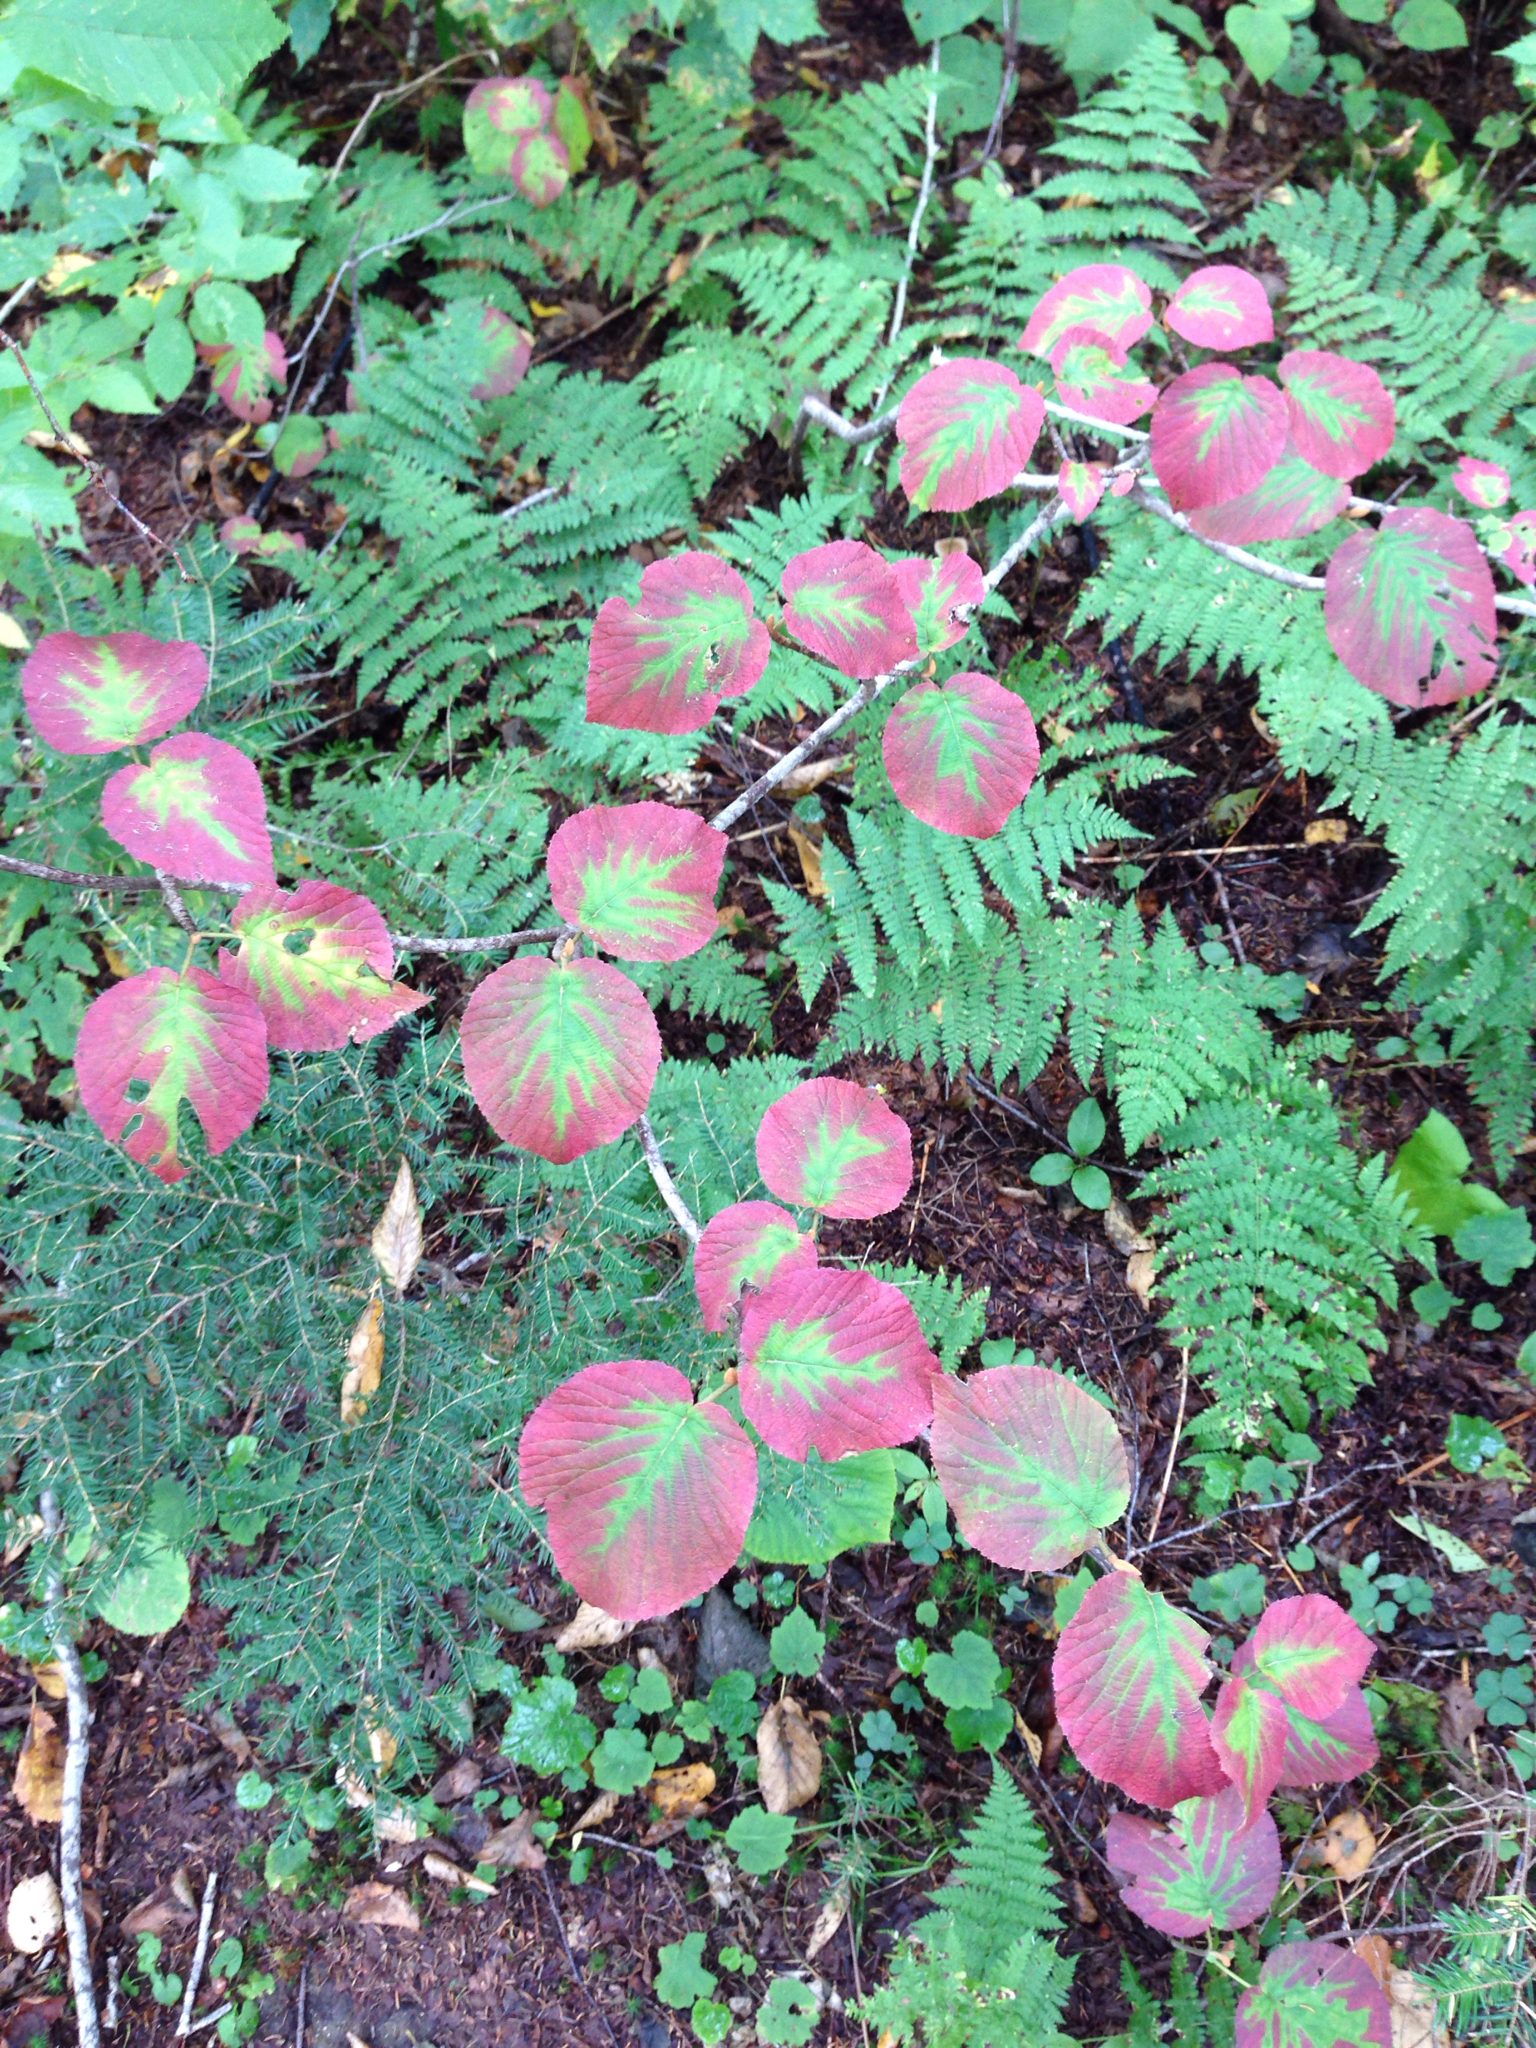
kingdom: Plantae
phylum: Tracheophyta
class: Magnoliopsida
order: Dipsacales
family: Viburnaceae
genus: Viburnum
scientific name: Viburnum lantanoides
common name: Hobblebush
